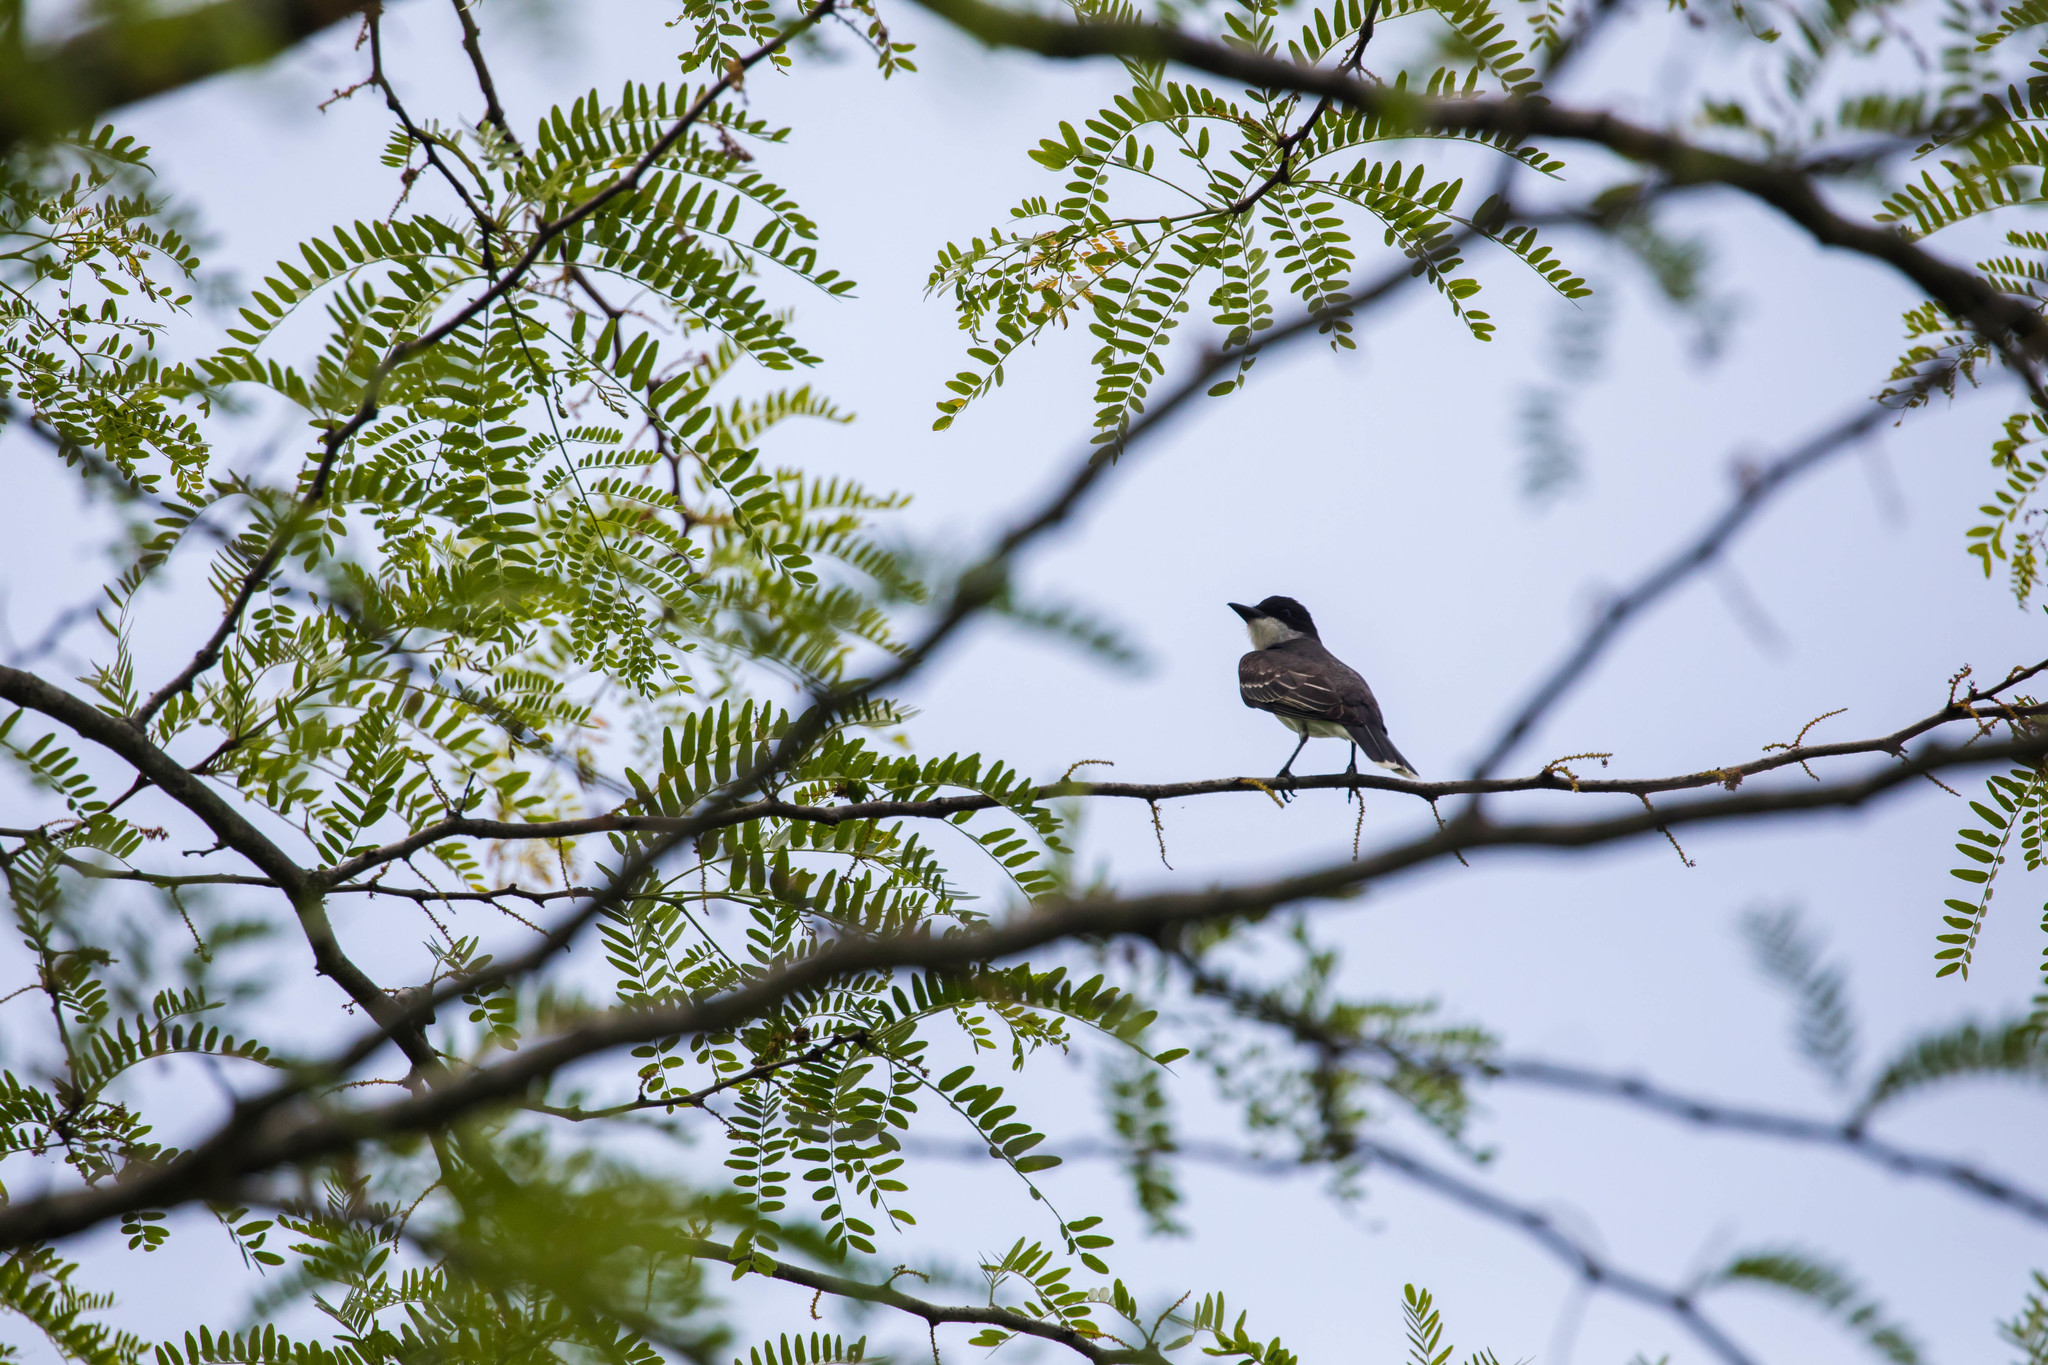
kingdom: Animalia
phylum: Chordata
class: Aves
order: Passeriformes
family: Tyrannidae
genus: Tyrannus
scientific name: Tyrannus tyrannus
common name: Eastern kingbird
